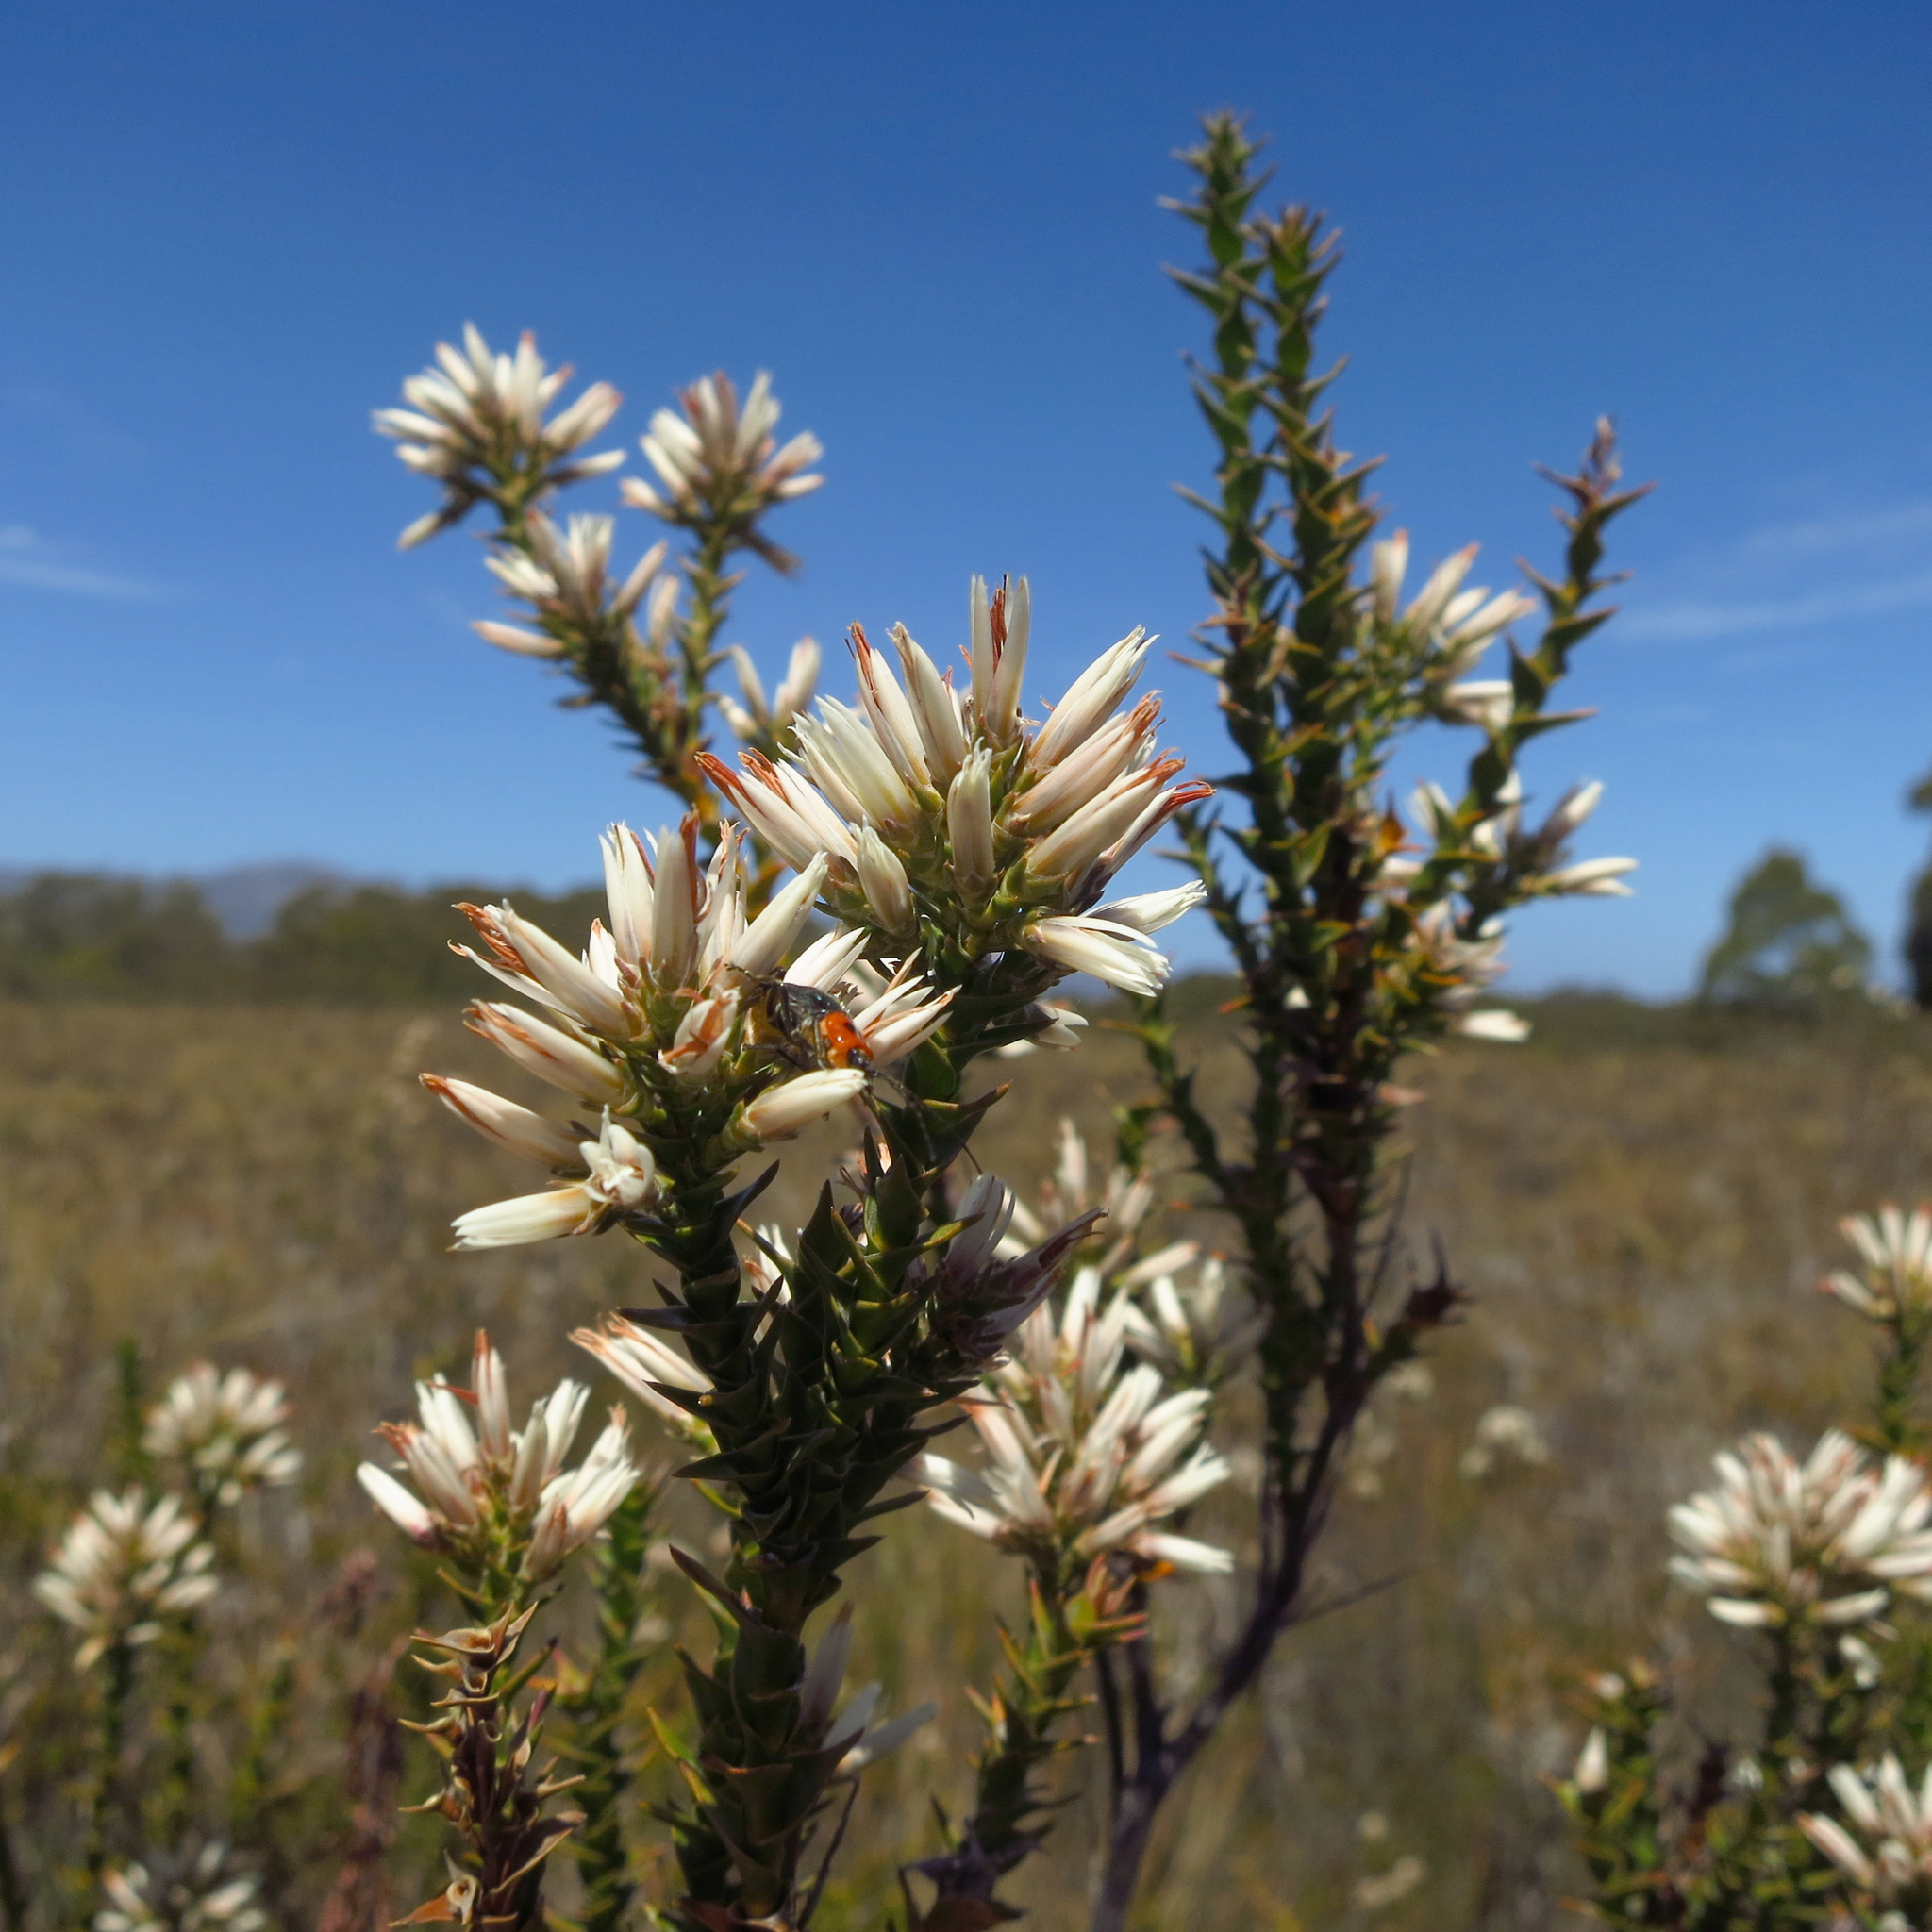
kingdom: Plantae
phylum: Tracheophyta
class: Magnoliopsida
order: Ericales
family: Ericaceae
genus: Sprengelia
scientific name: Sprengelia propinqua
